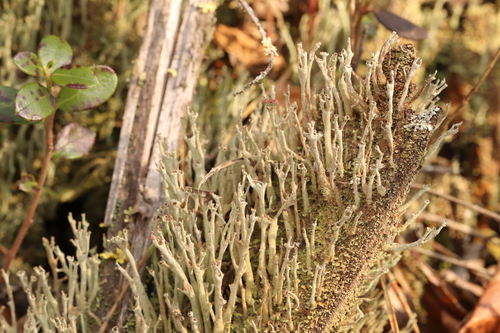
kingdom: Fungi
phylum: Ascomycota
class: Lecanoromycetes
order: Lecanorales
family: Cladoniaceae
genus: Cladonia
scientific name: Cladonia subulata
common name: Antlered powderhorn
